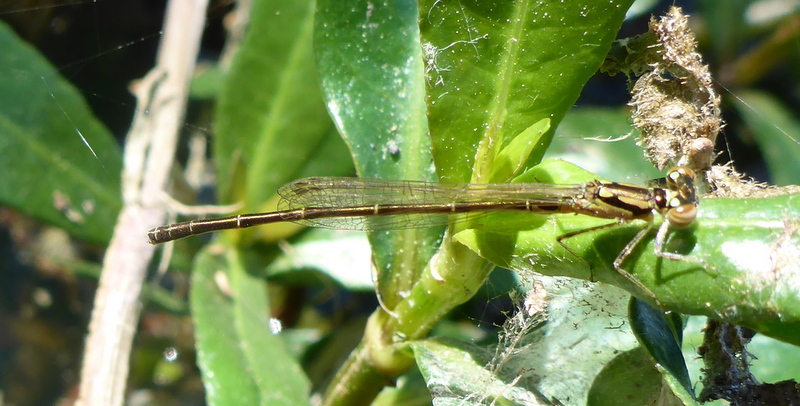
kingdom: Animalia
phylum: Arthropoda
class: Insecta
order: Odonata
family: Coenagrionidae
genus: Ischnura
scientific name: Ischnura posita
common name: Fragile forktail
